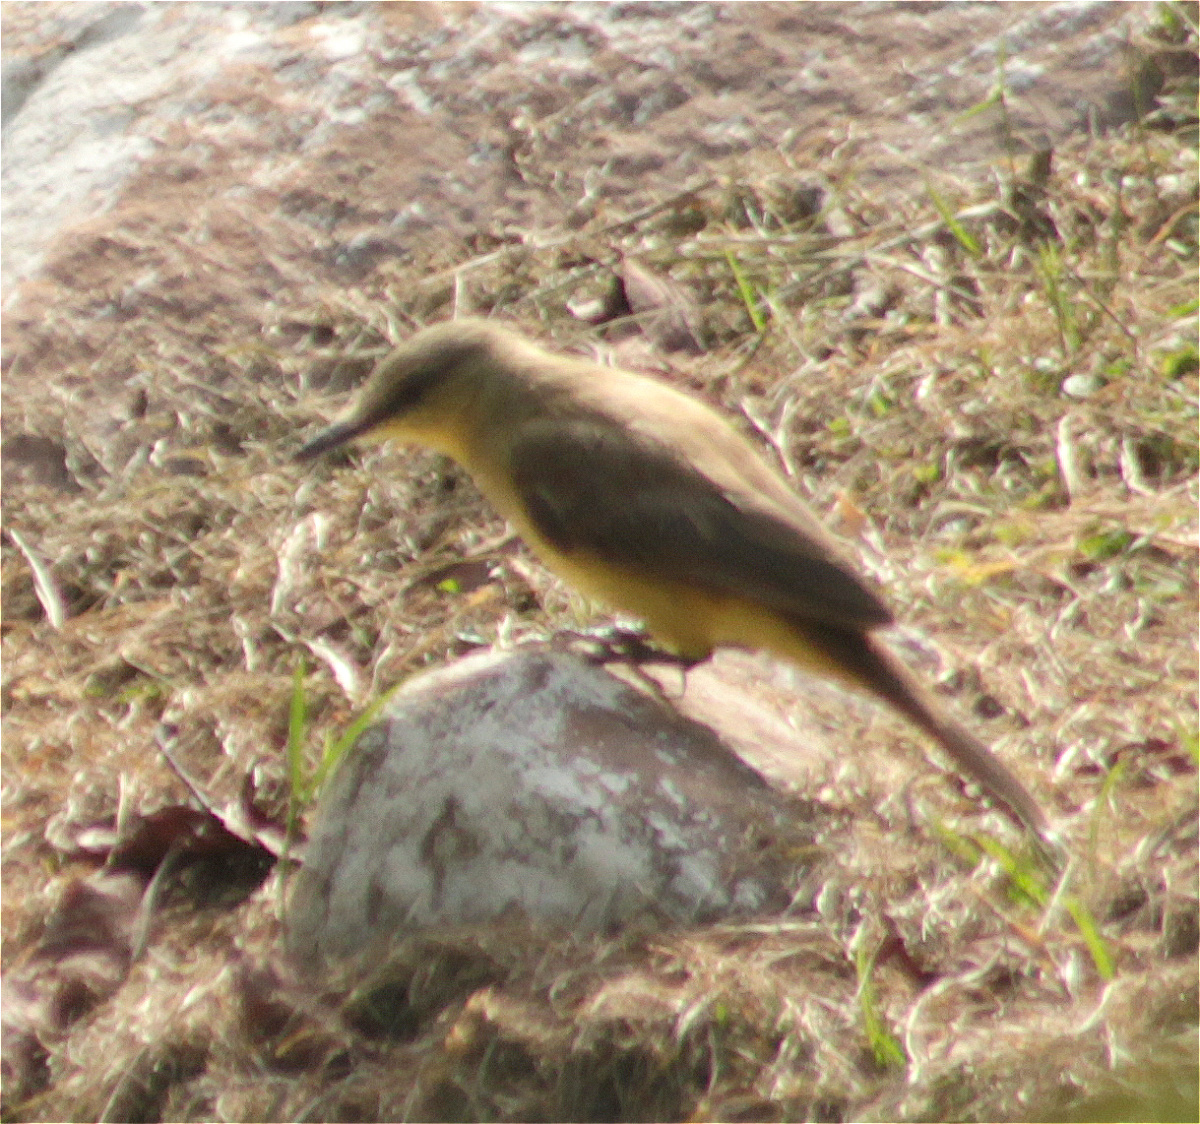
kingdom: Animalia
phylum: Chordata
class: Aves
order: Passeriformes
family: Tyrannidae
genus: Machetornis
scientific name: Machetornis rixosa
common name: Cattle tyrant
